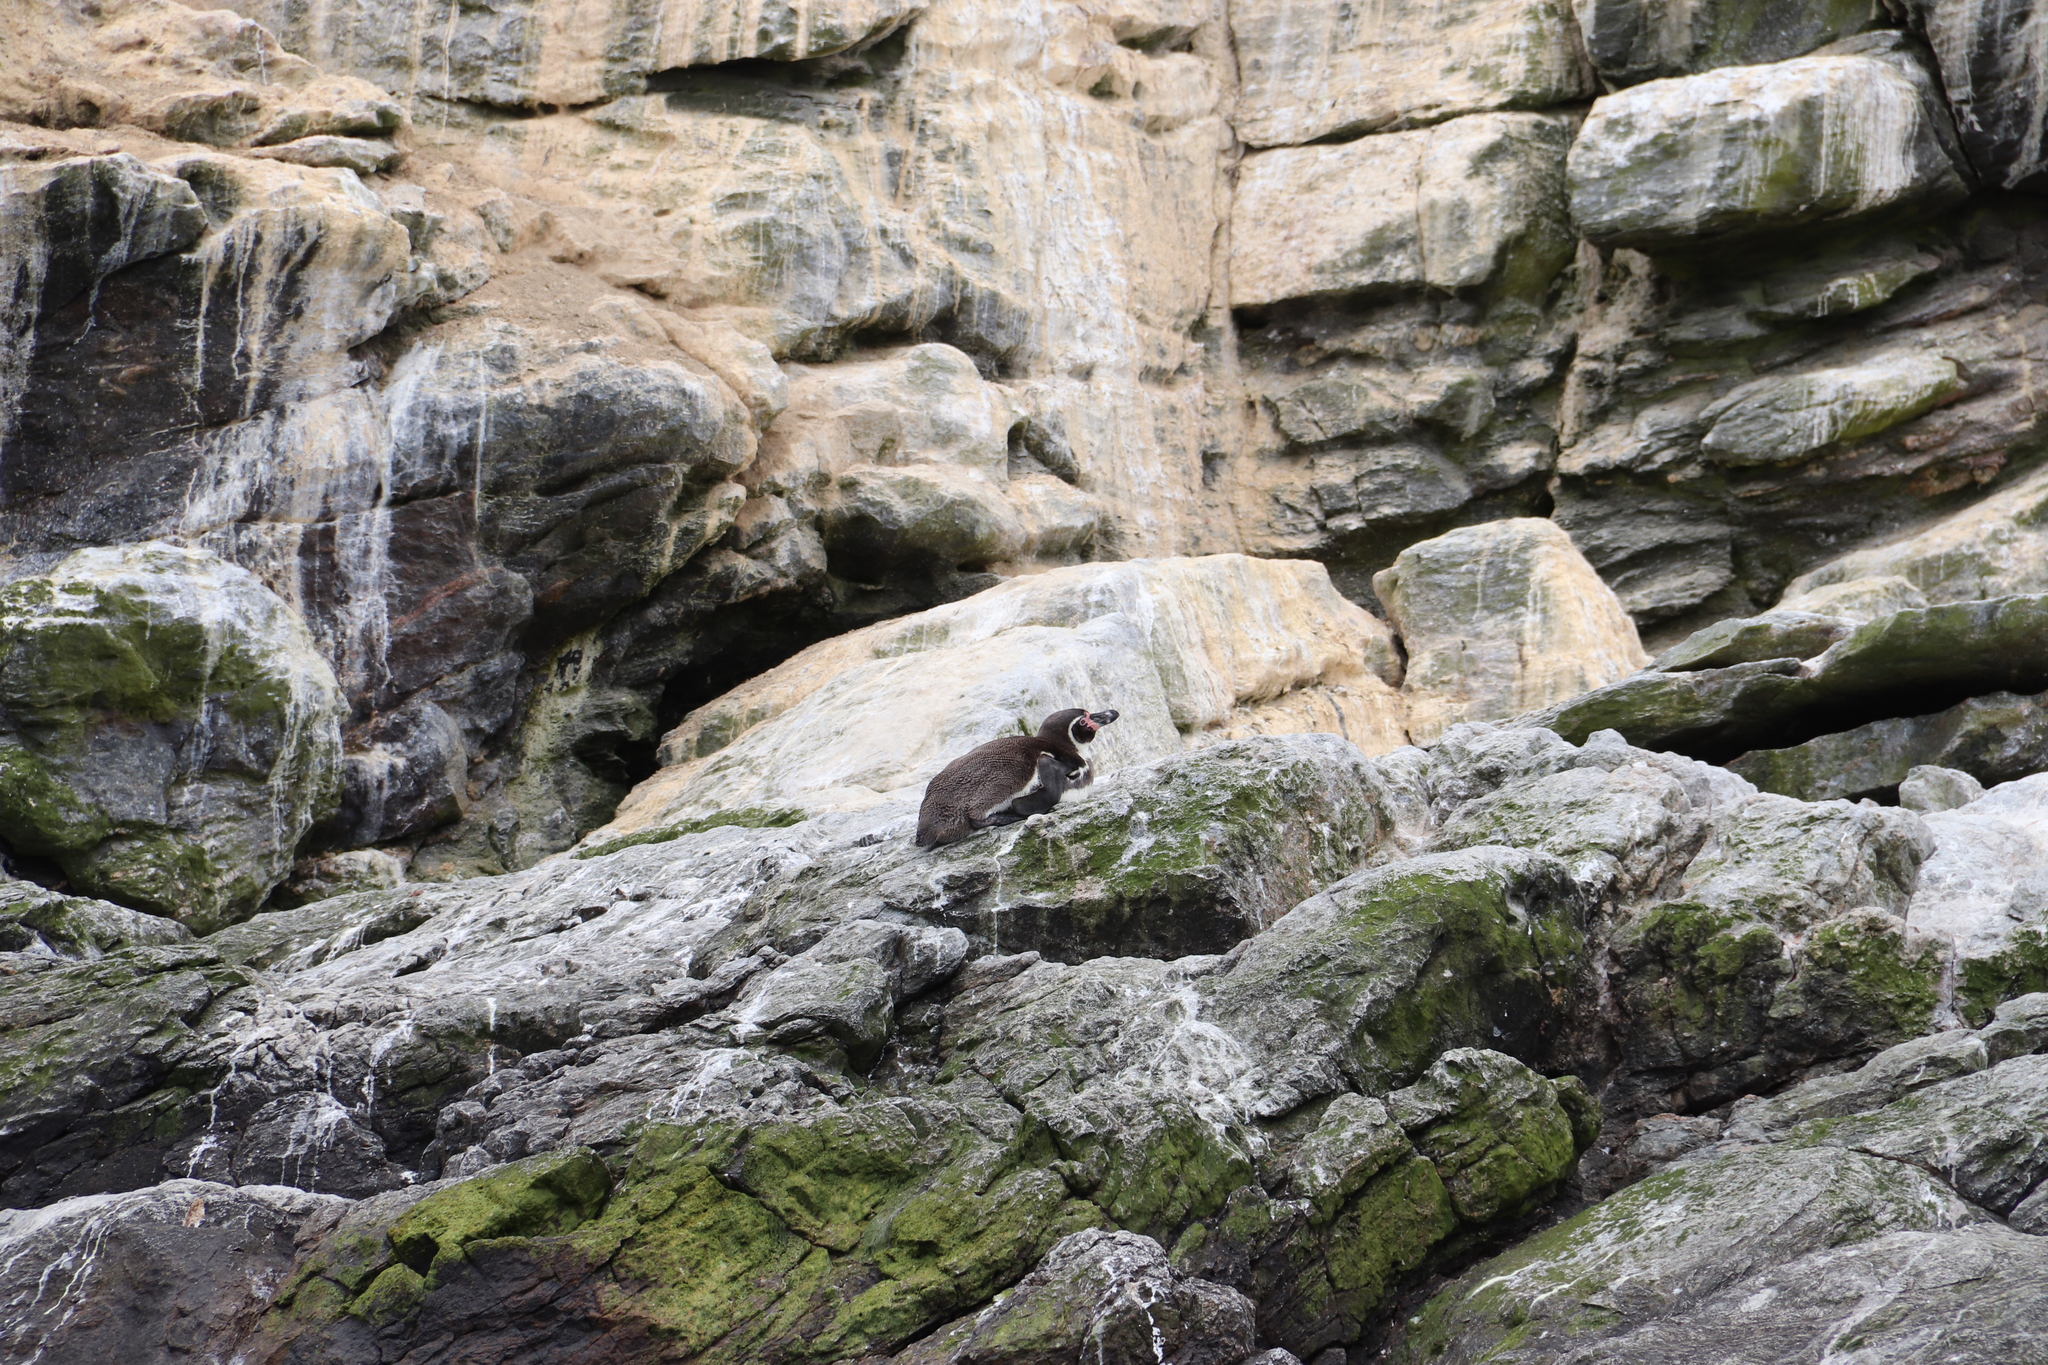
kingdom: Animalia
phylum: Chordata
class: Aves
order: Sphenisciformes
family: Spheniscidae
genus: Spheniscus
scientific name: Spheniscus humboldti
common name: Humboldt penguin
